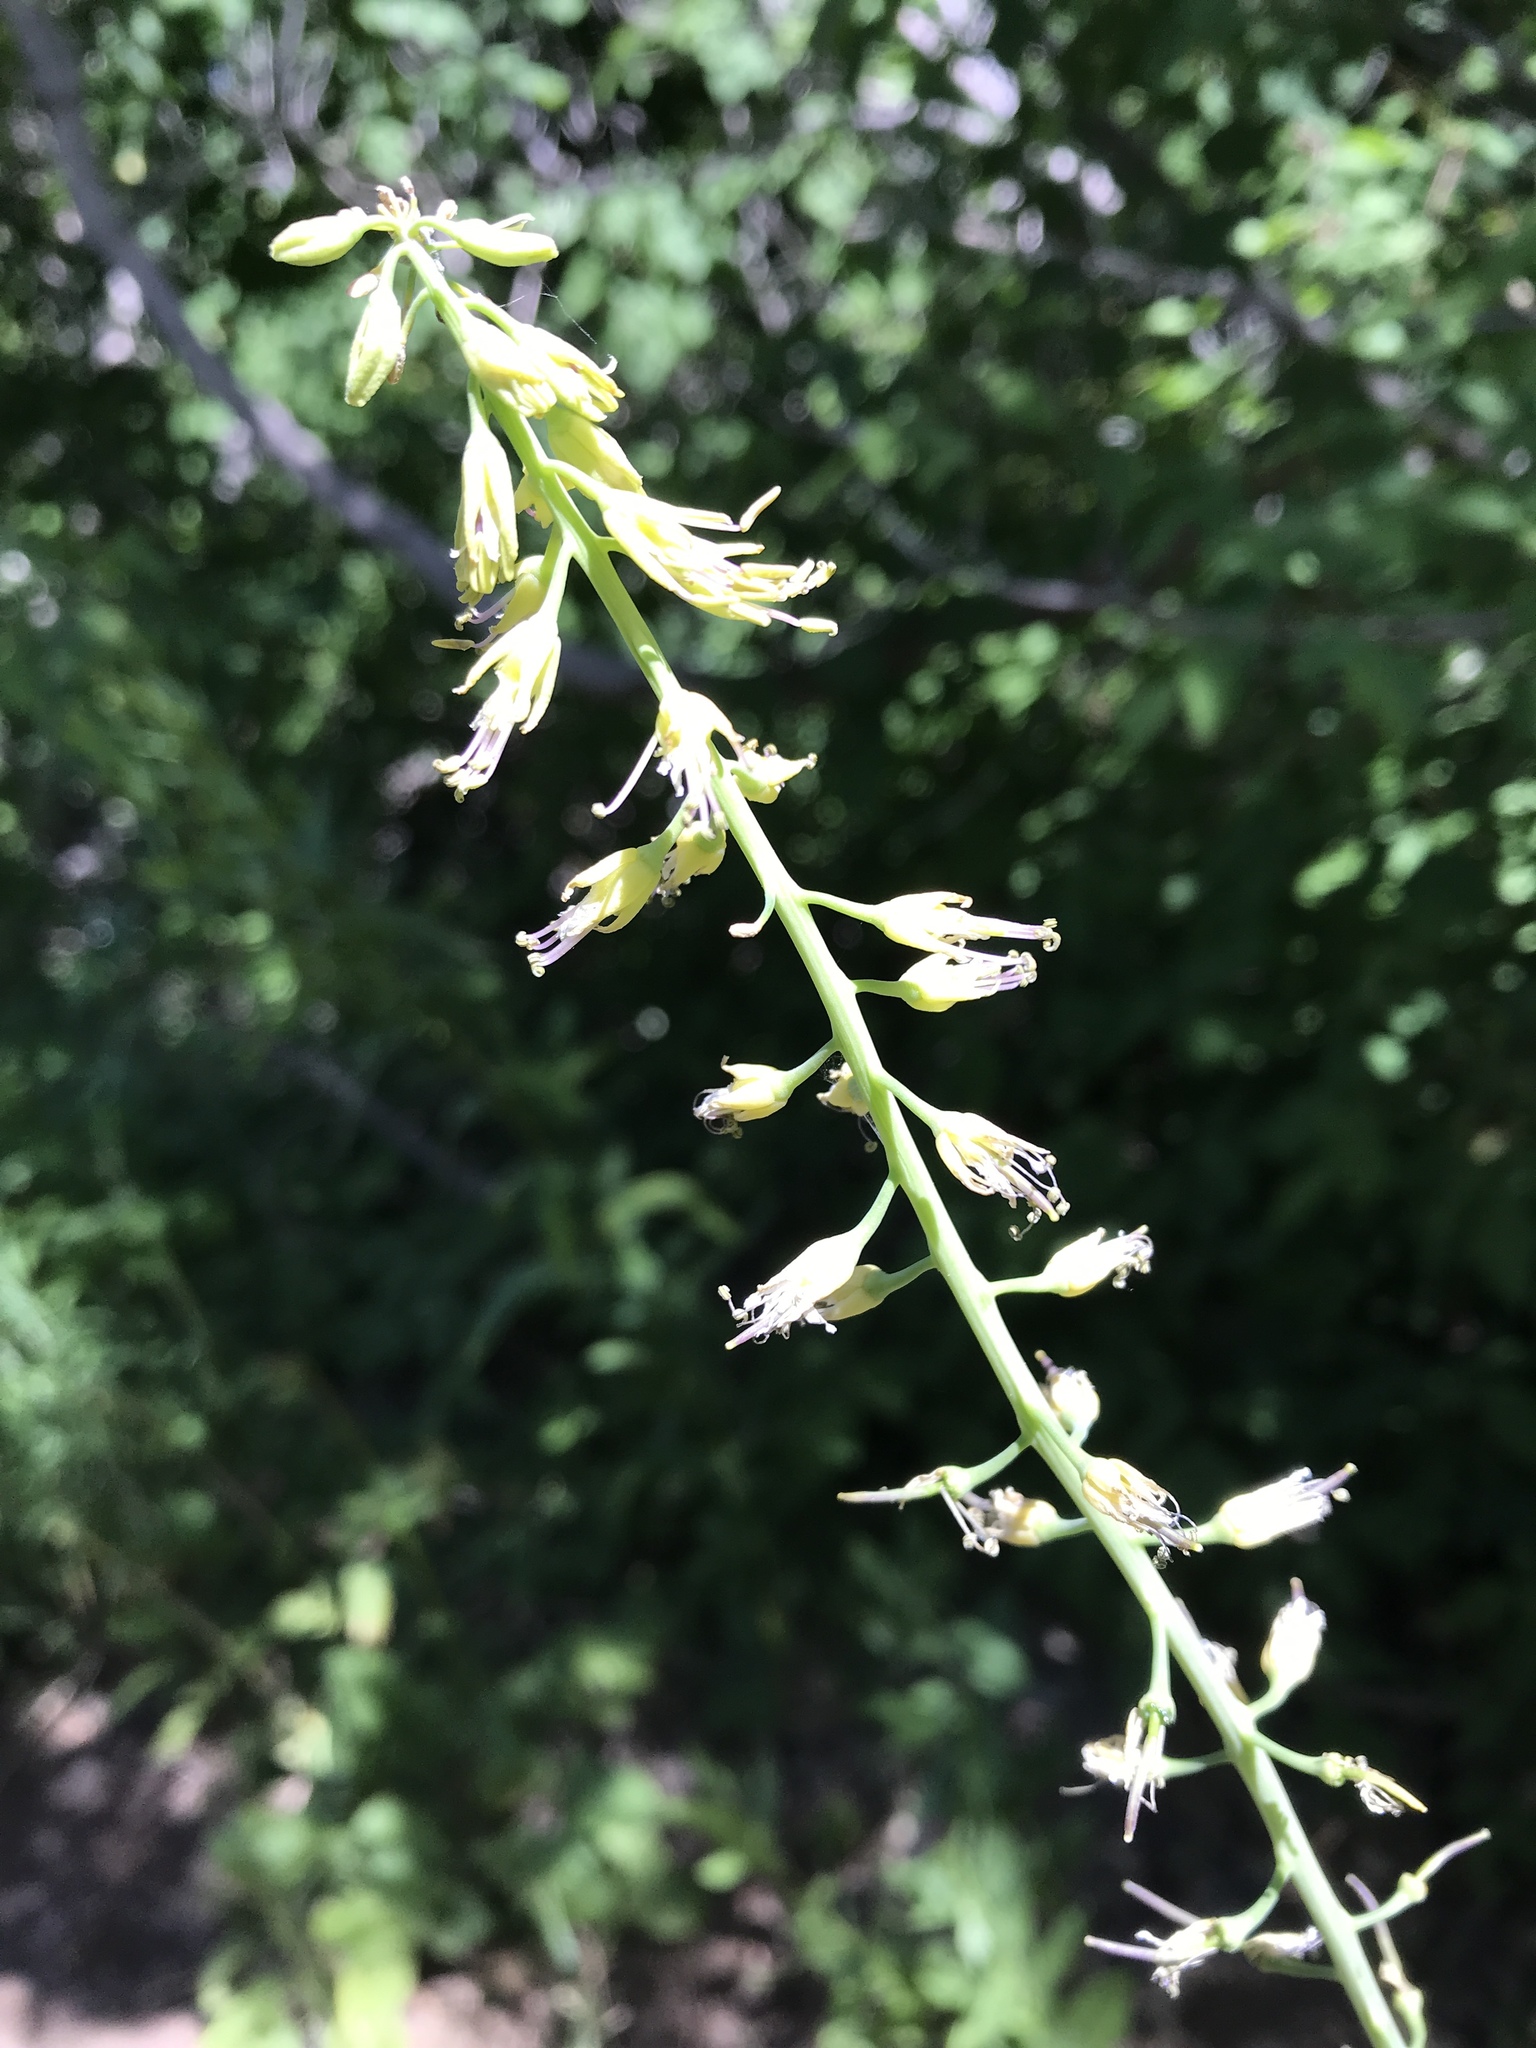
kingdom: Plantae
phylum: Tracheophyta
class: Magnoliopsida
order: Brassicales
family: Brassicaceae
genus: Chlorocrambe
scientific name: Chlorocrambe hastata
